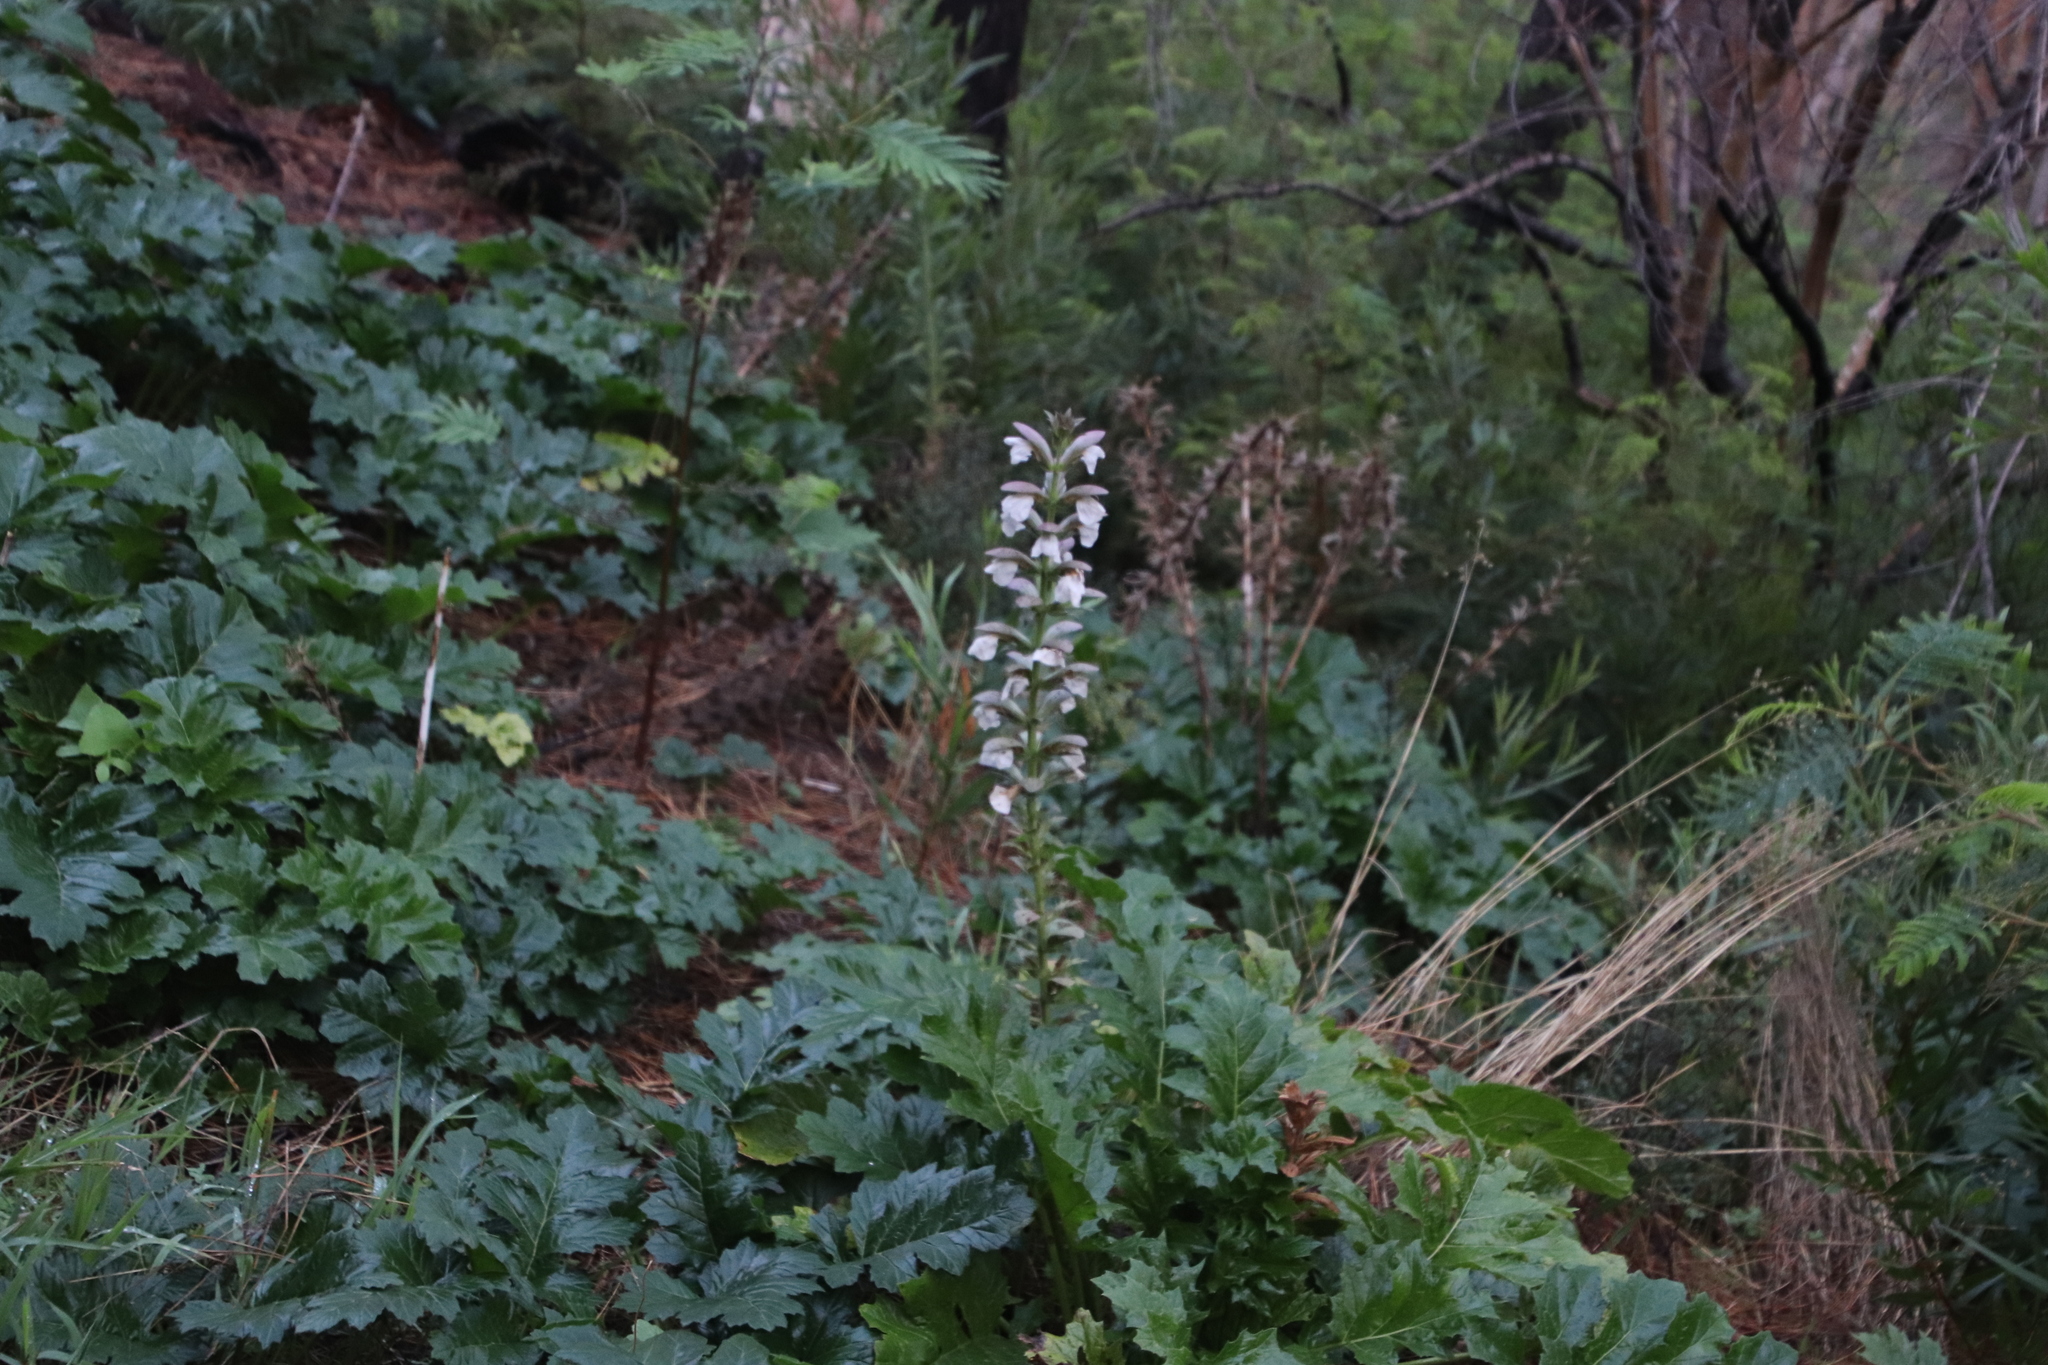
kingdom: Plantae
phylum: Tracheophyta
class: Magnoliopsida
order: Lamiales
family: Acanthaceae
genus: Acanthus
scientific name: Acanthus mollis
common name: Bear's-breech
